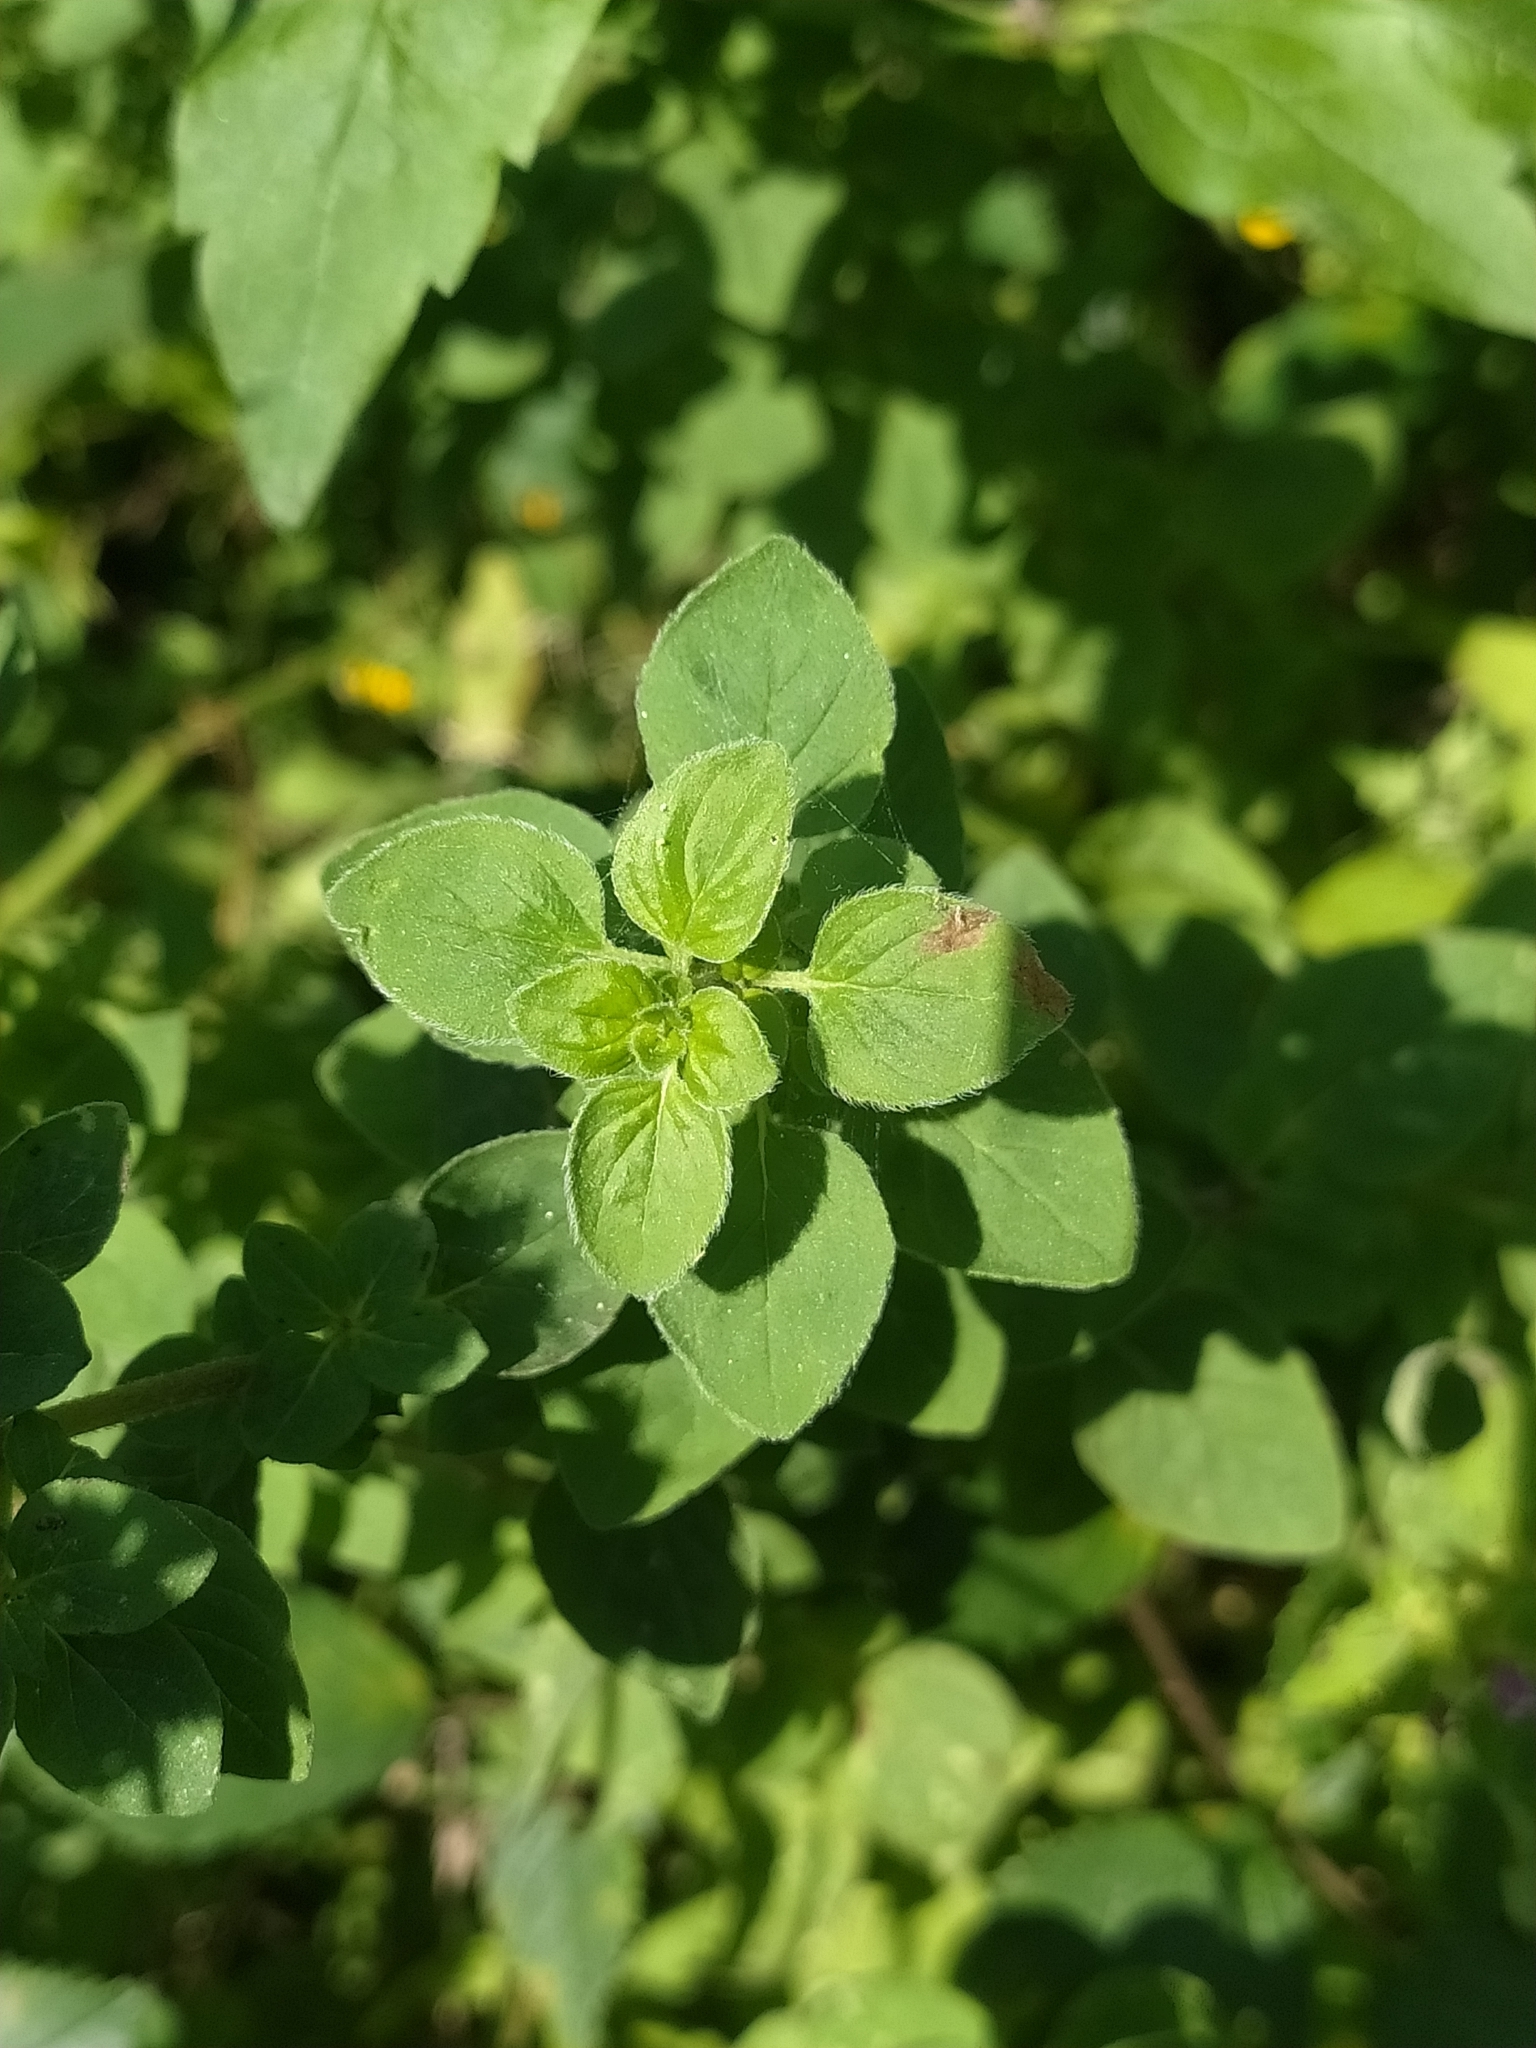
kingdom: Plantae
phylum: Tracheophyta
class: Magnoliopsida
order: Lamiales
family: Lamiaceae
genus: Origanum
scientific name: Origanum vulgare
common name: Wild marjoram
